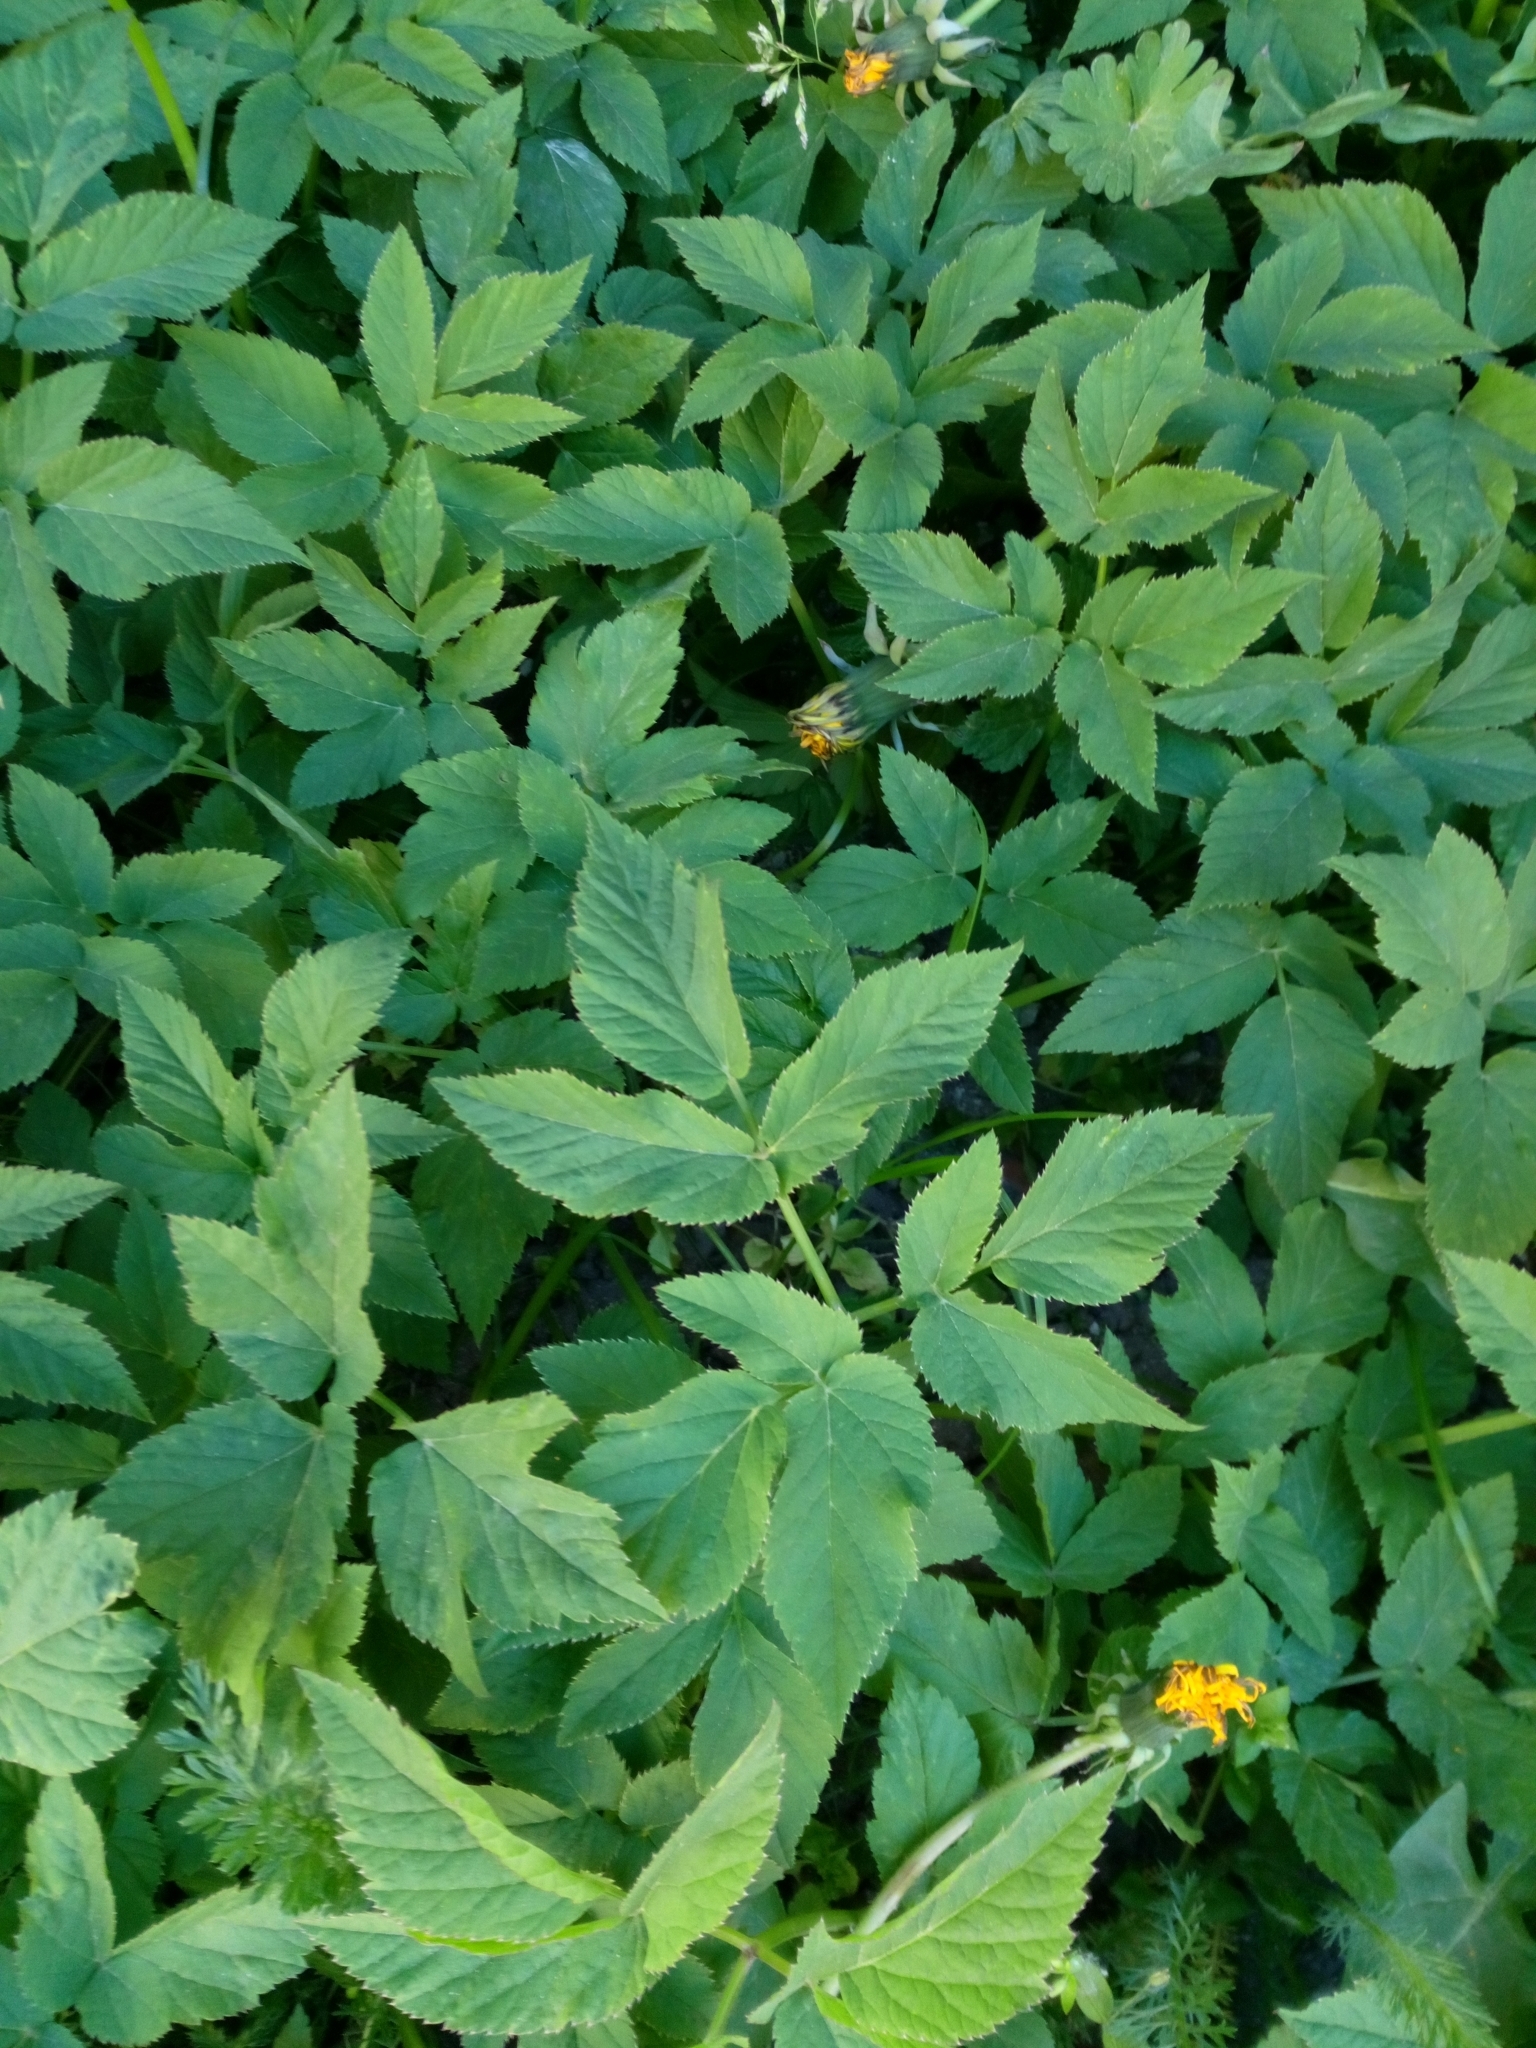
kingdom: Plantae
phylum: Tracheophyta
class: Magnoliopsida
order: Apiales
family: Apiaceae
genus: Aegopodium
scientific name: Aegopodium podagraria
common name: Ground-elder
